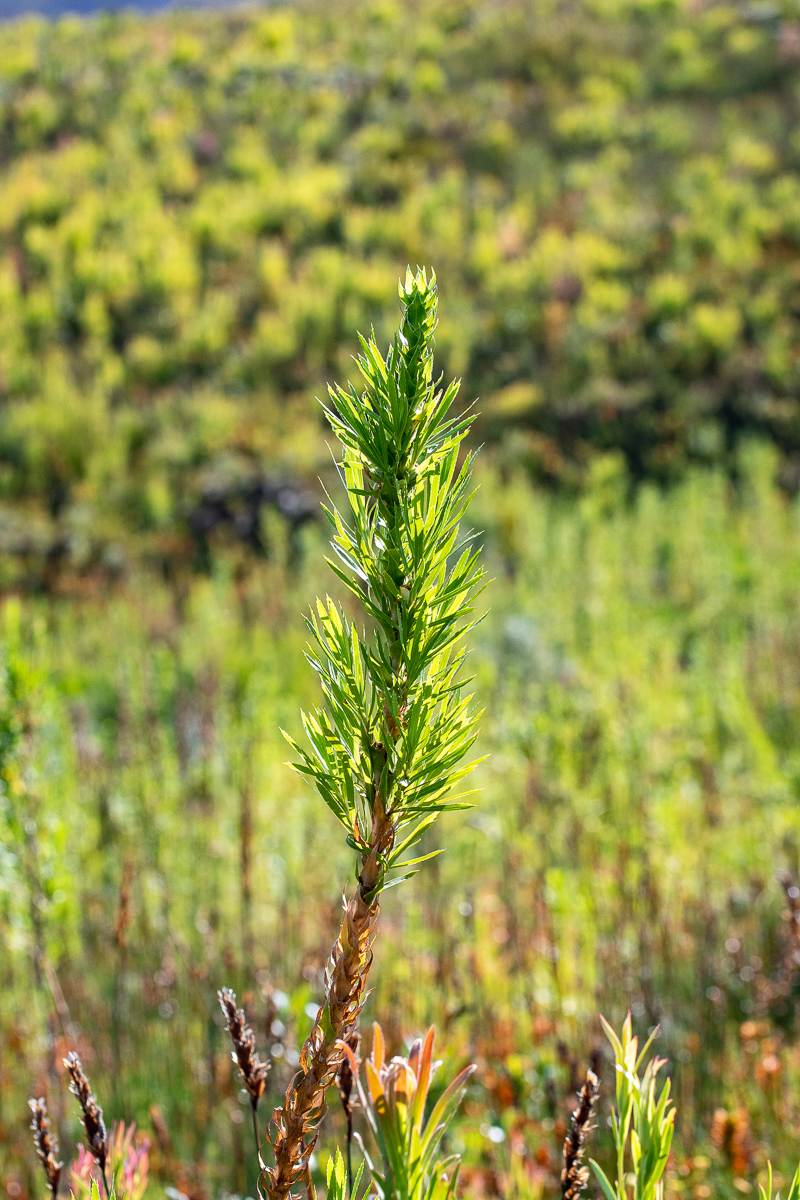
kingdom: Plantae
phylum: Tracheophyta
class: Magnoliopsida
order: Rosales
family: Rosaceae
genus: Cliffortia
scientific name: Cliffortia heterophylla
